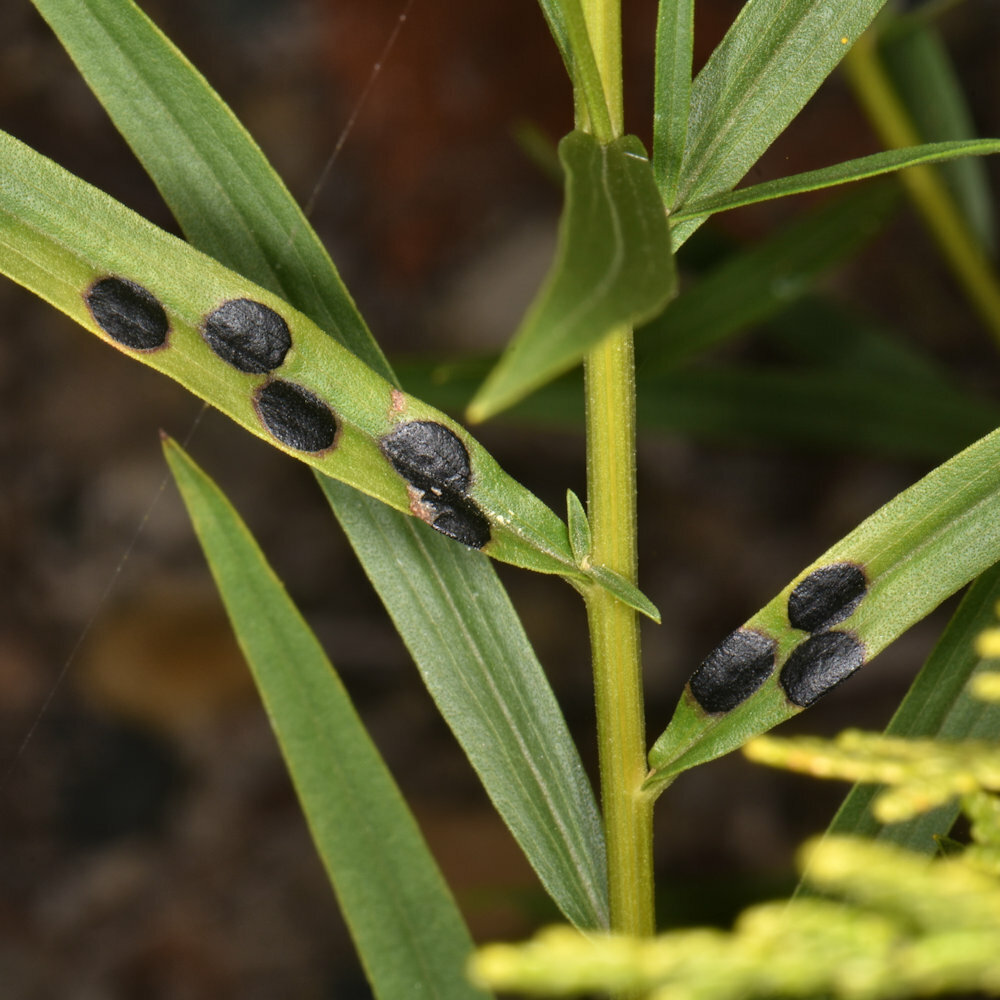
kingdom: Animalia
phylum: Arthropoda
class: Insecta
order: Diptera
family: Cecidomyiidae
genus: Asteromyia
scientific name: Asteromyia euthamiae
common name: Euthamia leaf gall midge
